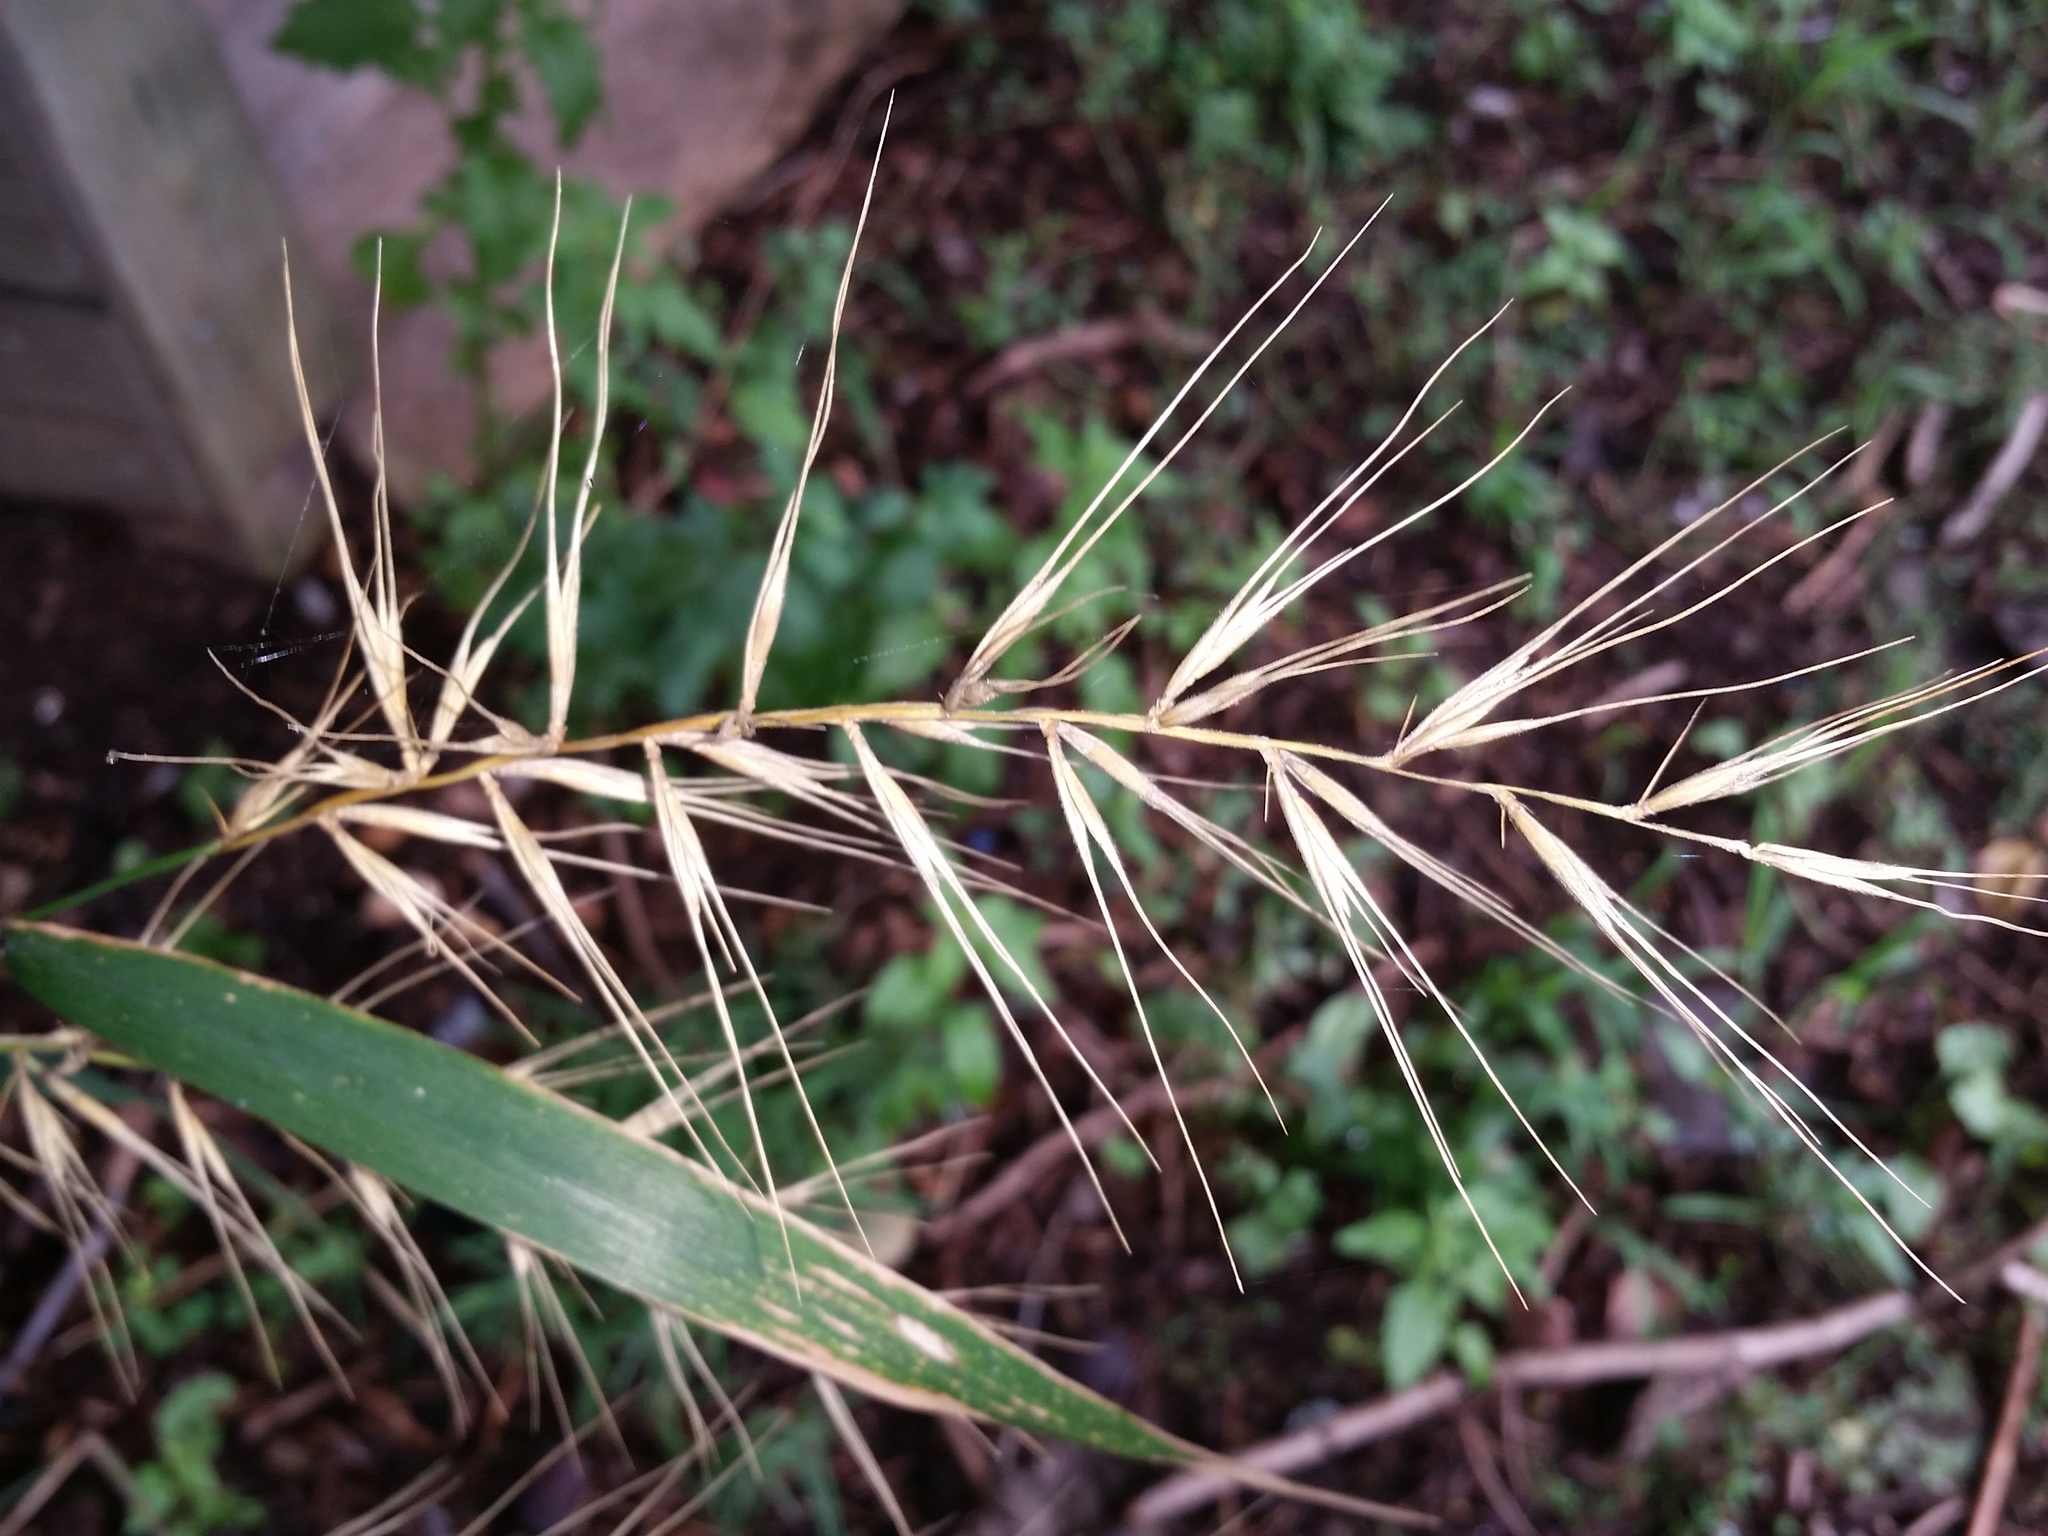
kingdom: Plantae
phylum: Tracheophyta
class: Liliopsida
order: Poales
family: Poaceae
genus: Elymus
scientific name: Elymus hystrix
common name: Bottlebrush grass
